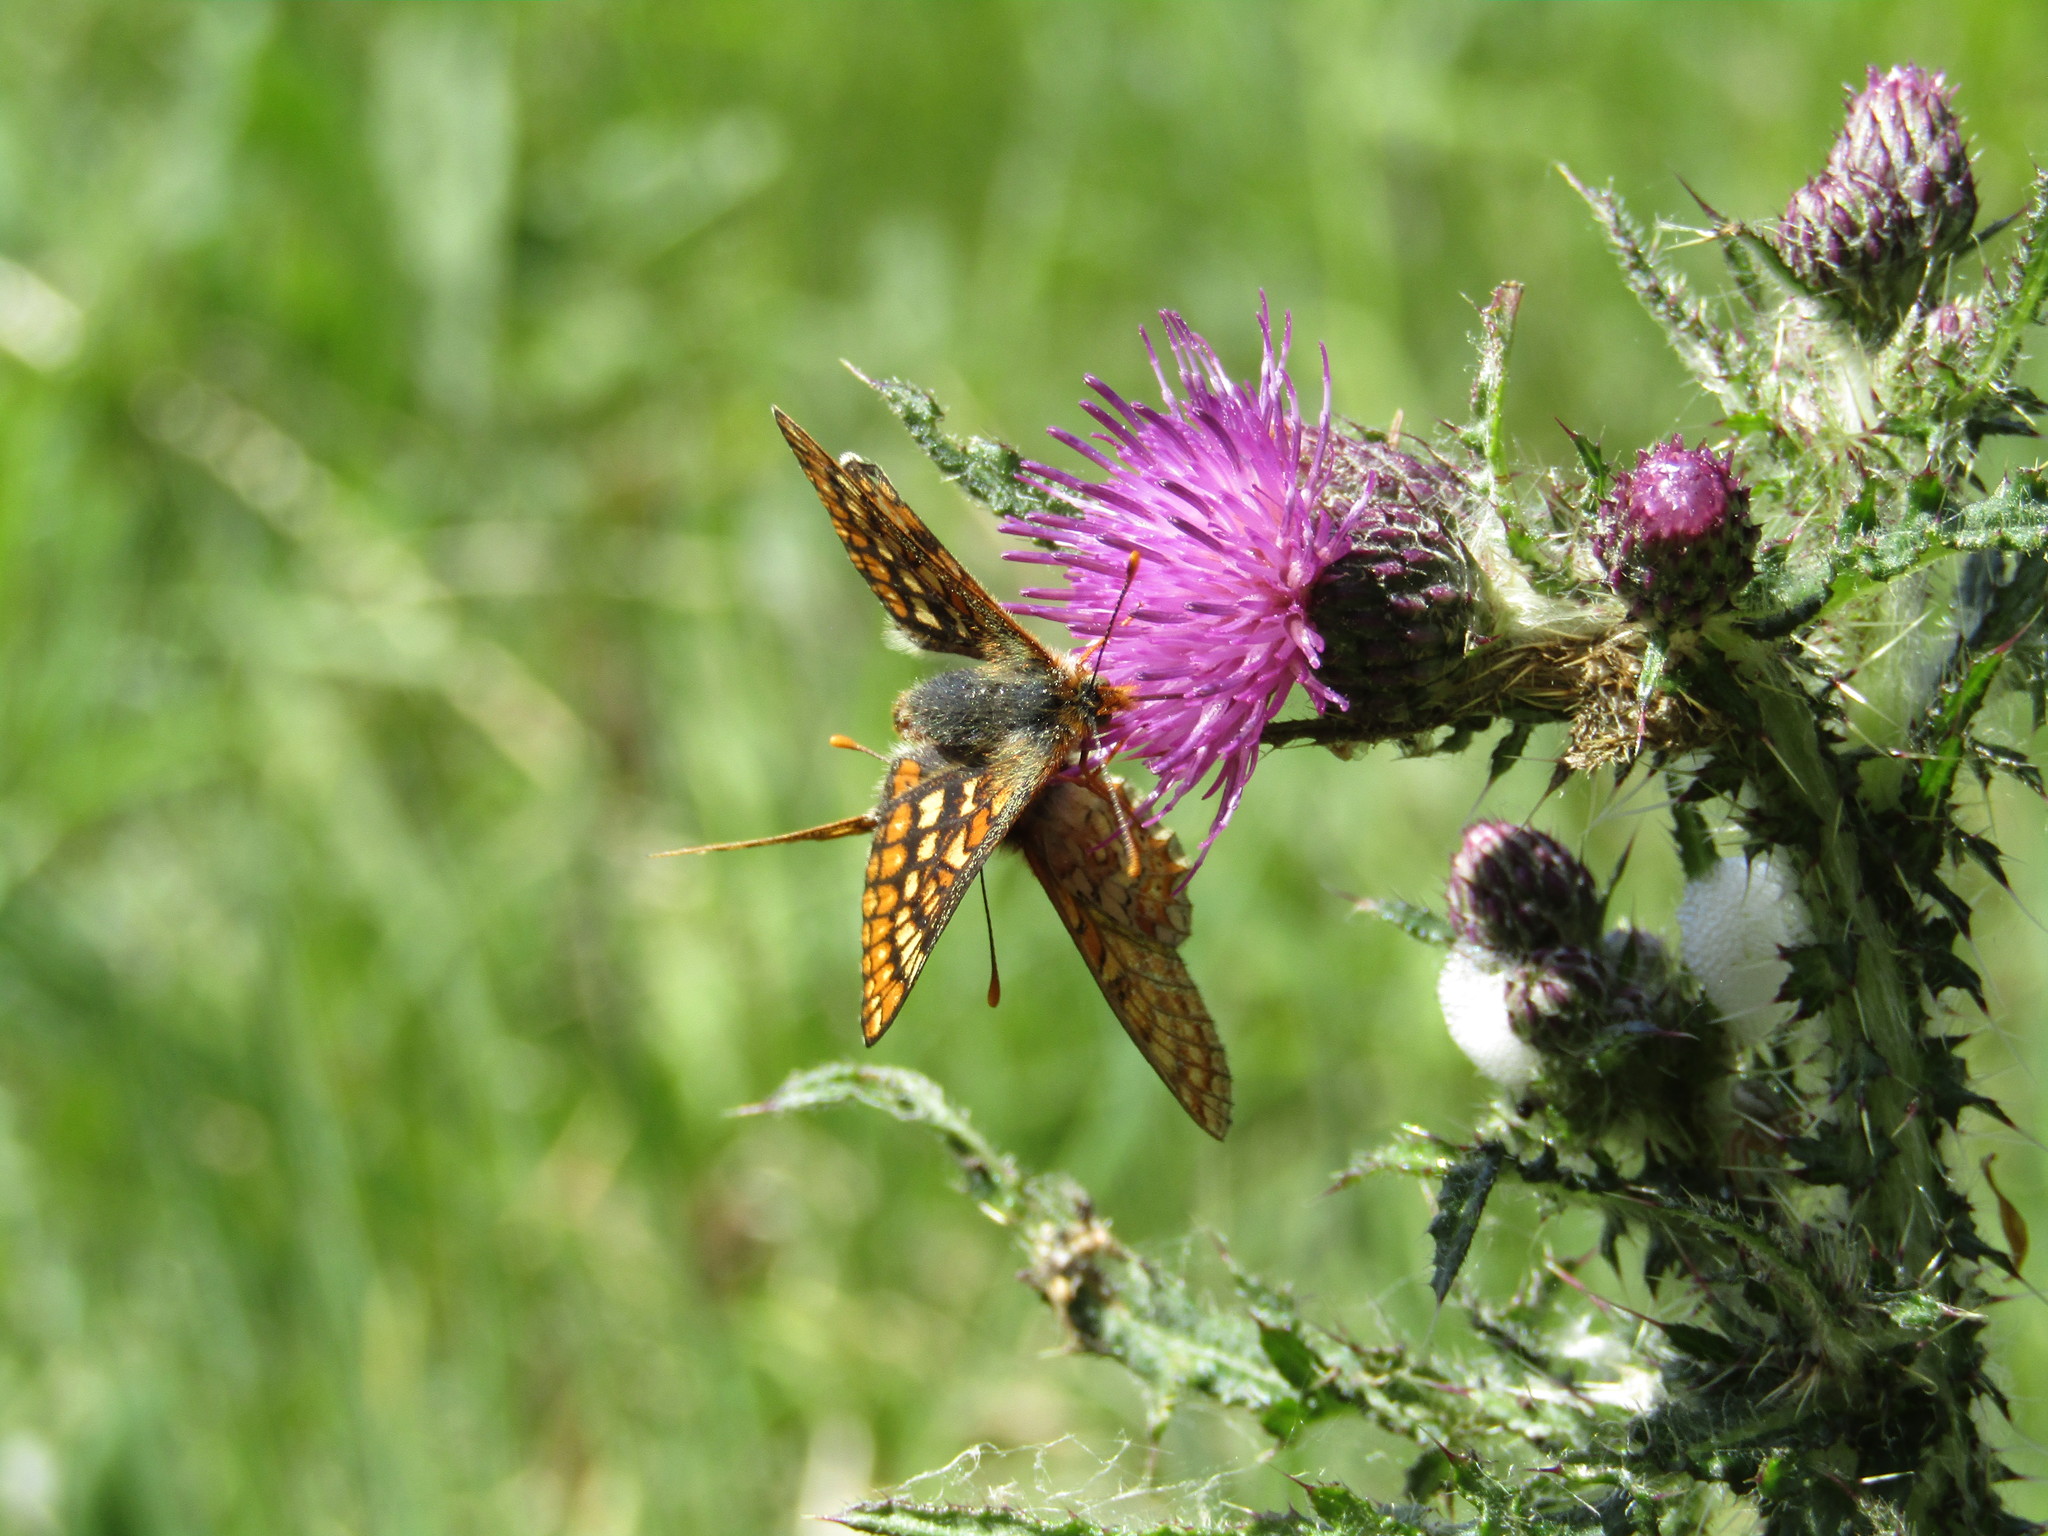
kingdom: Animalia
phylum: Arthropoda
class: Insecta
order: Lepidoptera
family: Nymphalidae
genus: Euphydryas
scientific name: Euphydryas aurinia
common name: Marsh fritillary
